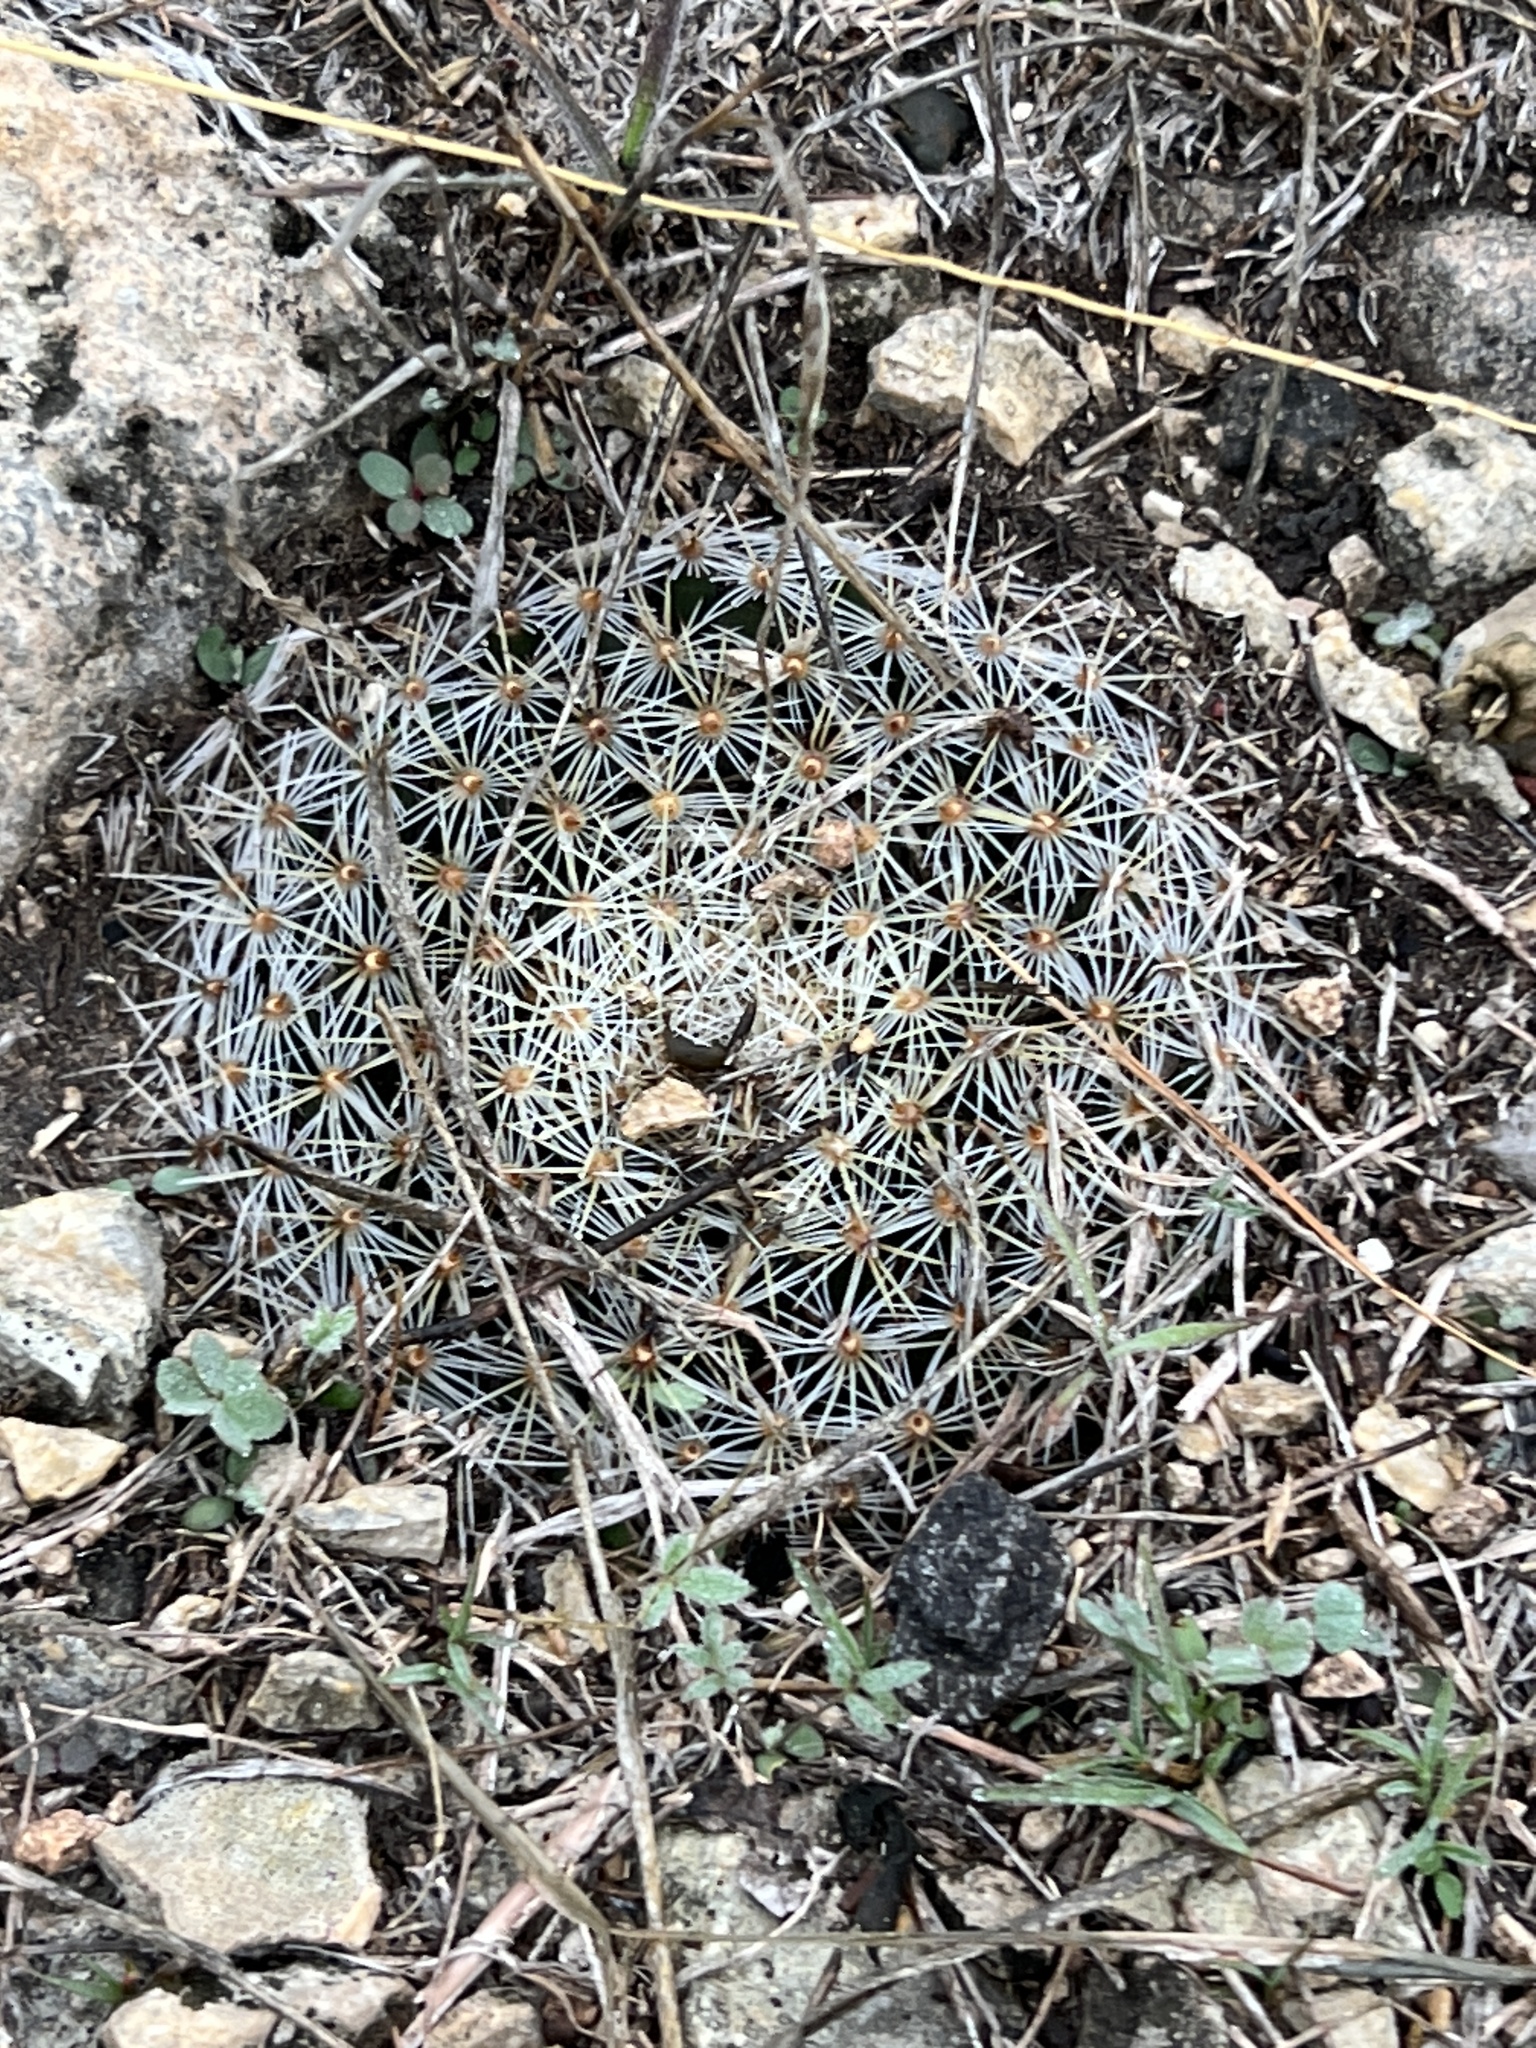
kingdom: Plantae
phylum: Tracheophyta
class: Magnoliopsida
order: Caryophyllales
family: Cactaceae
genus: Mammillaria
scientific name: Mammillaria heyderi
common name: Little nipple cactus
